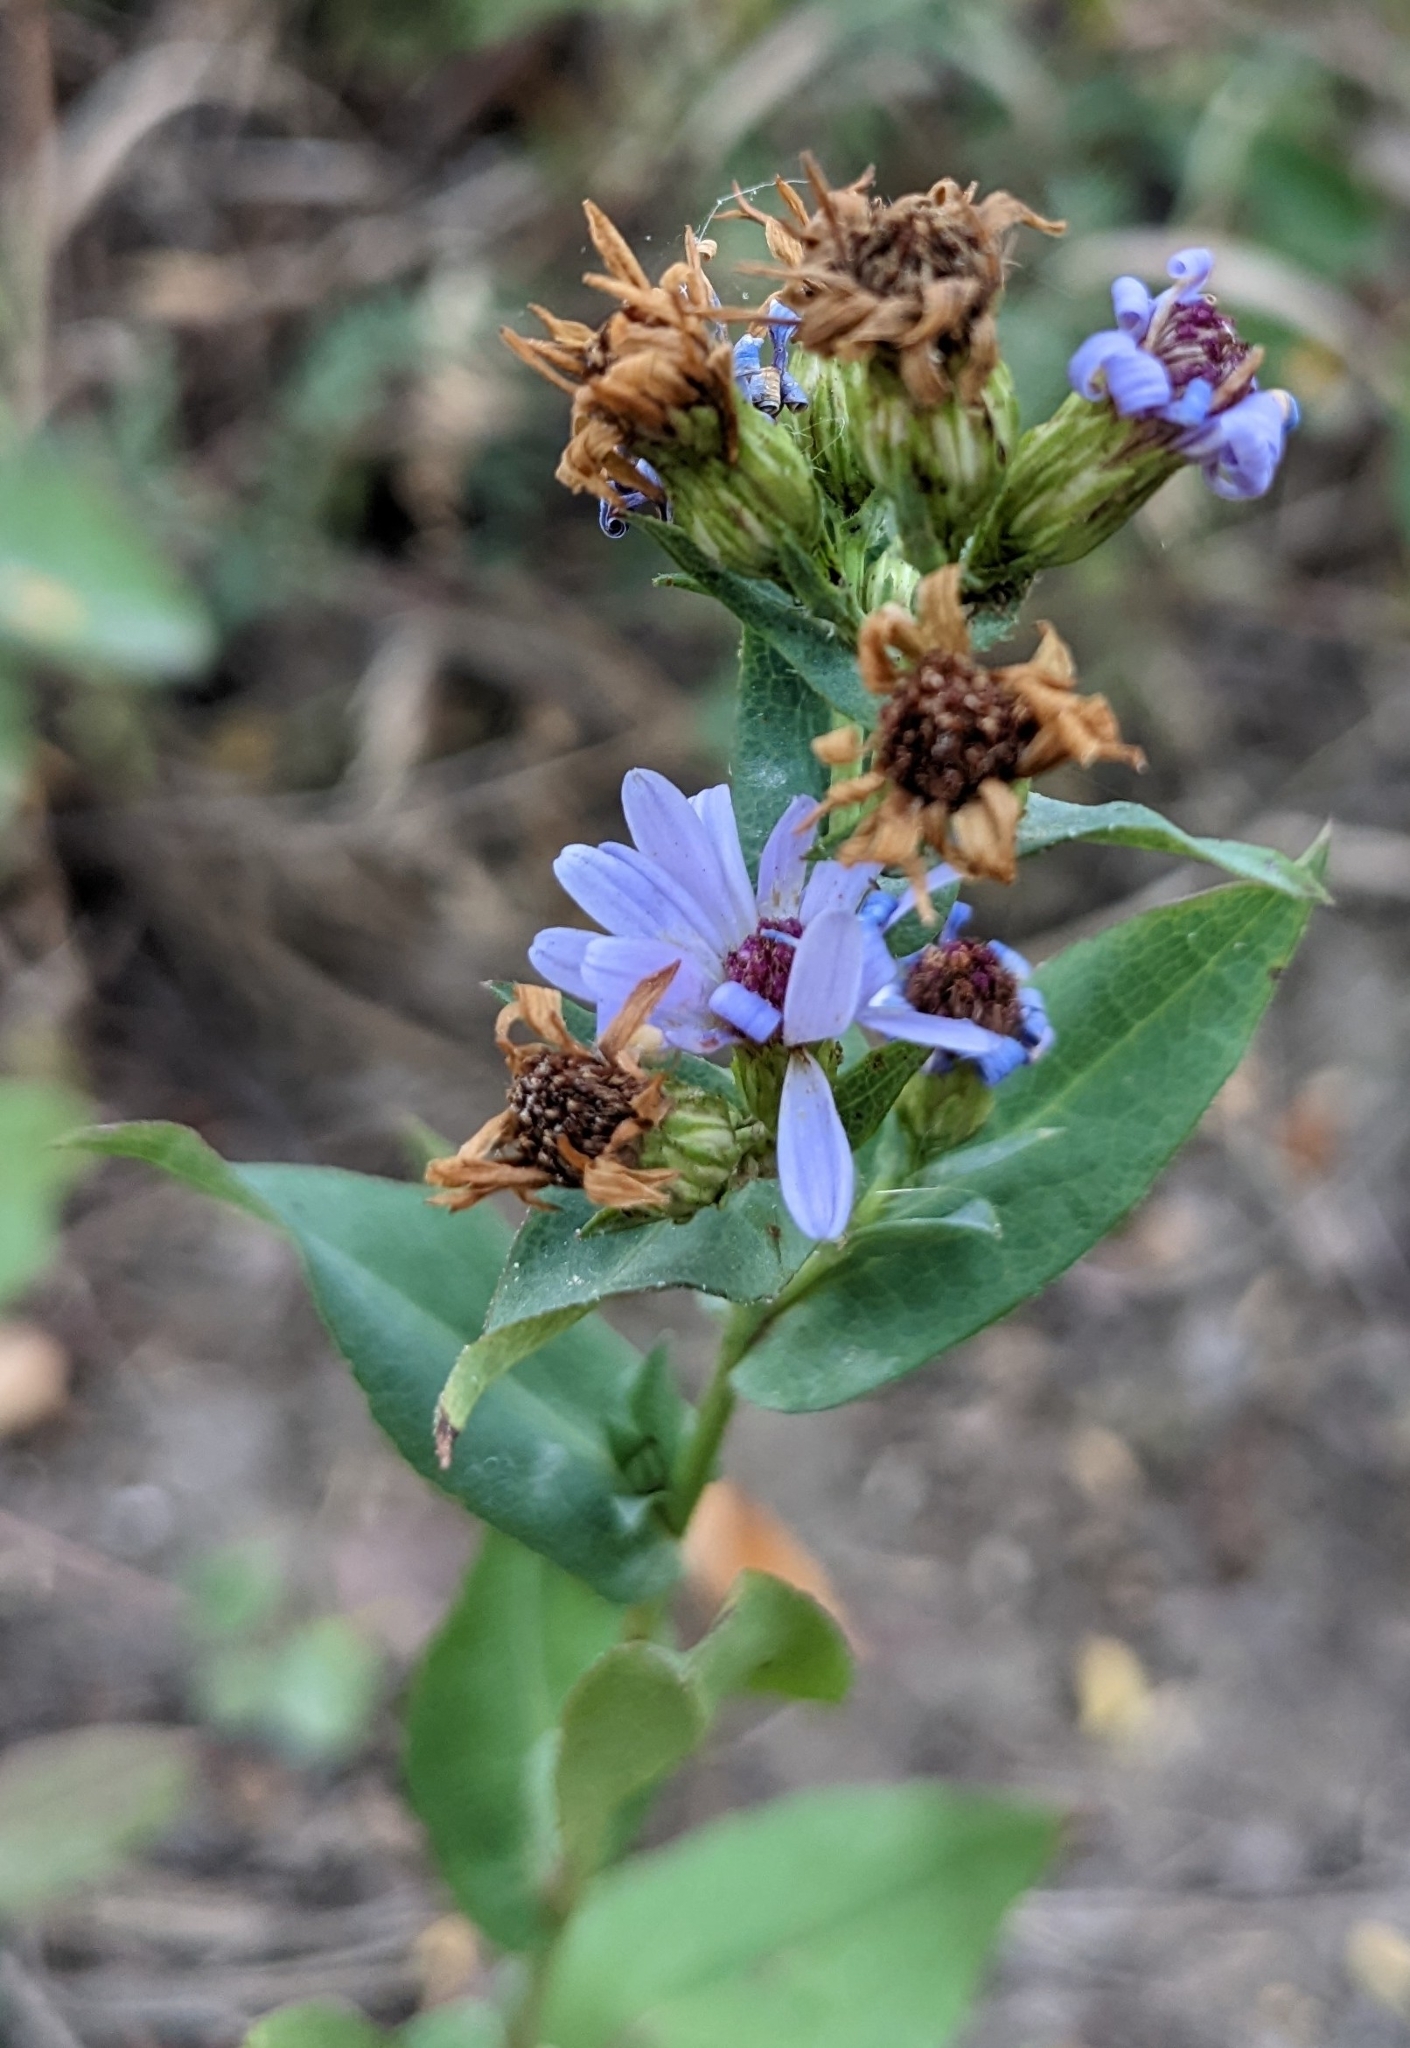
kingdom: Plantae
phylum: Tracheophyta
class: Magnoliopsida
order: Asterales
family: Asteraceae
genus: Symphyotrichum
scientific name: Symphyotrichum laeve
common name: Glaucous aster
